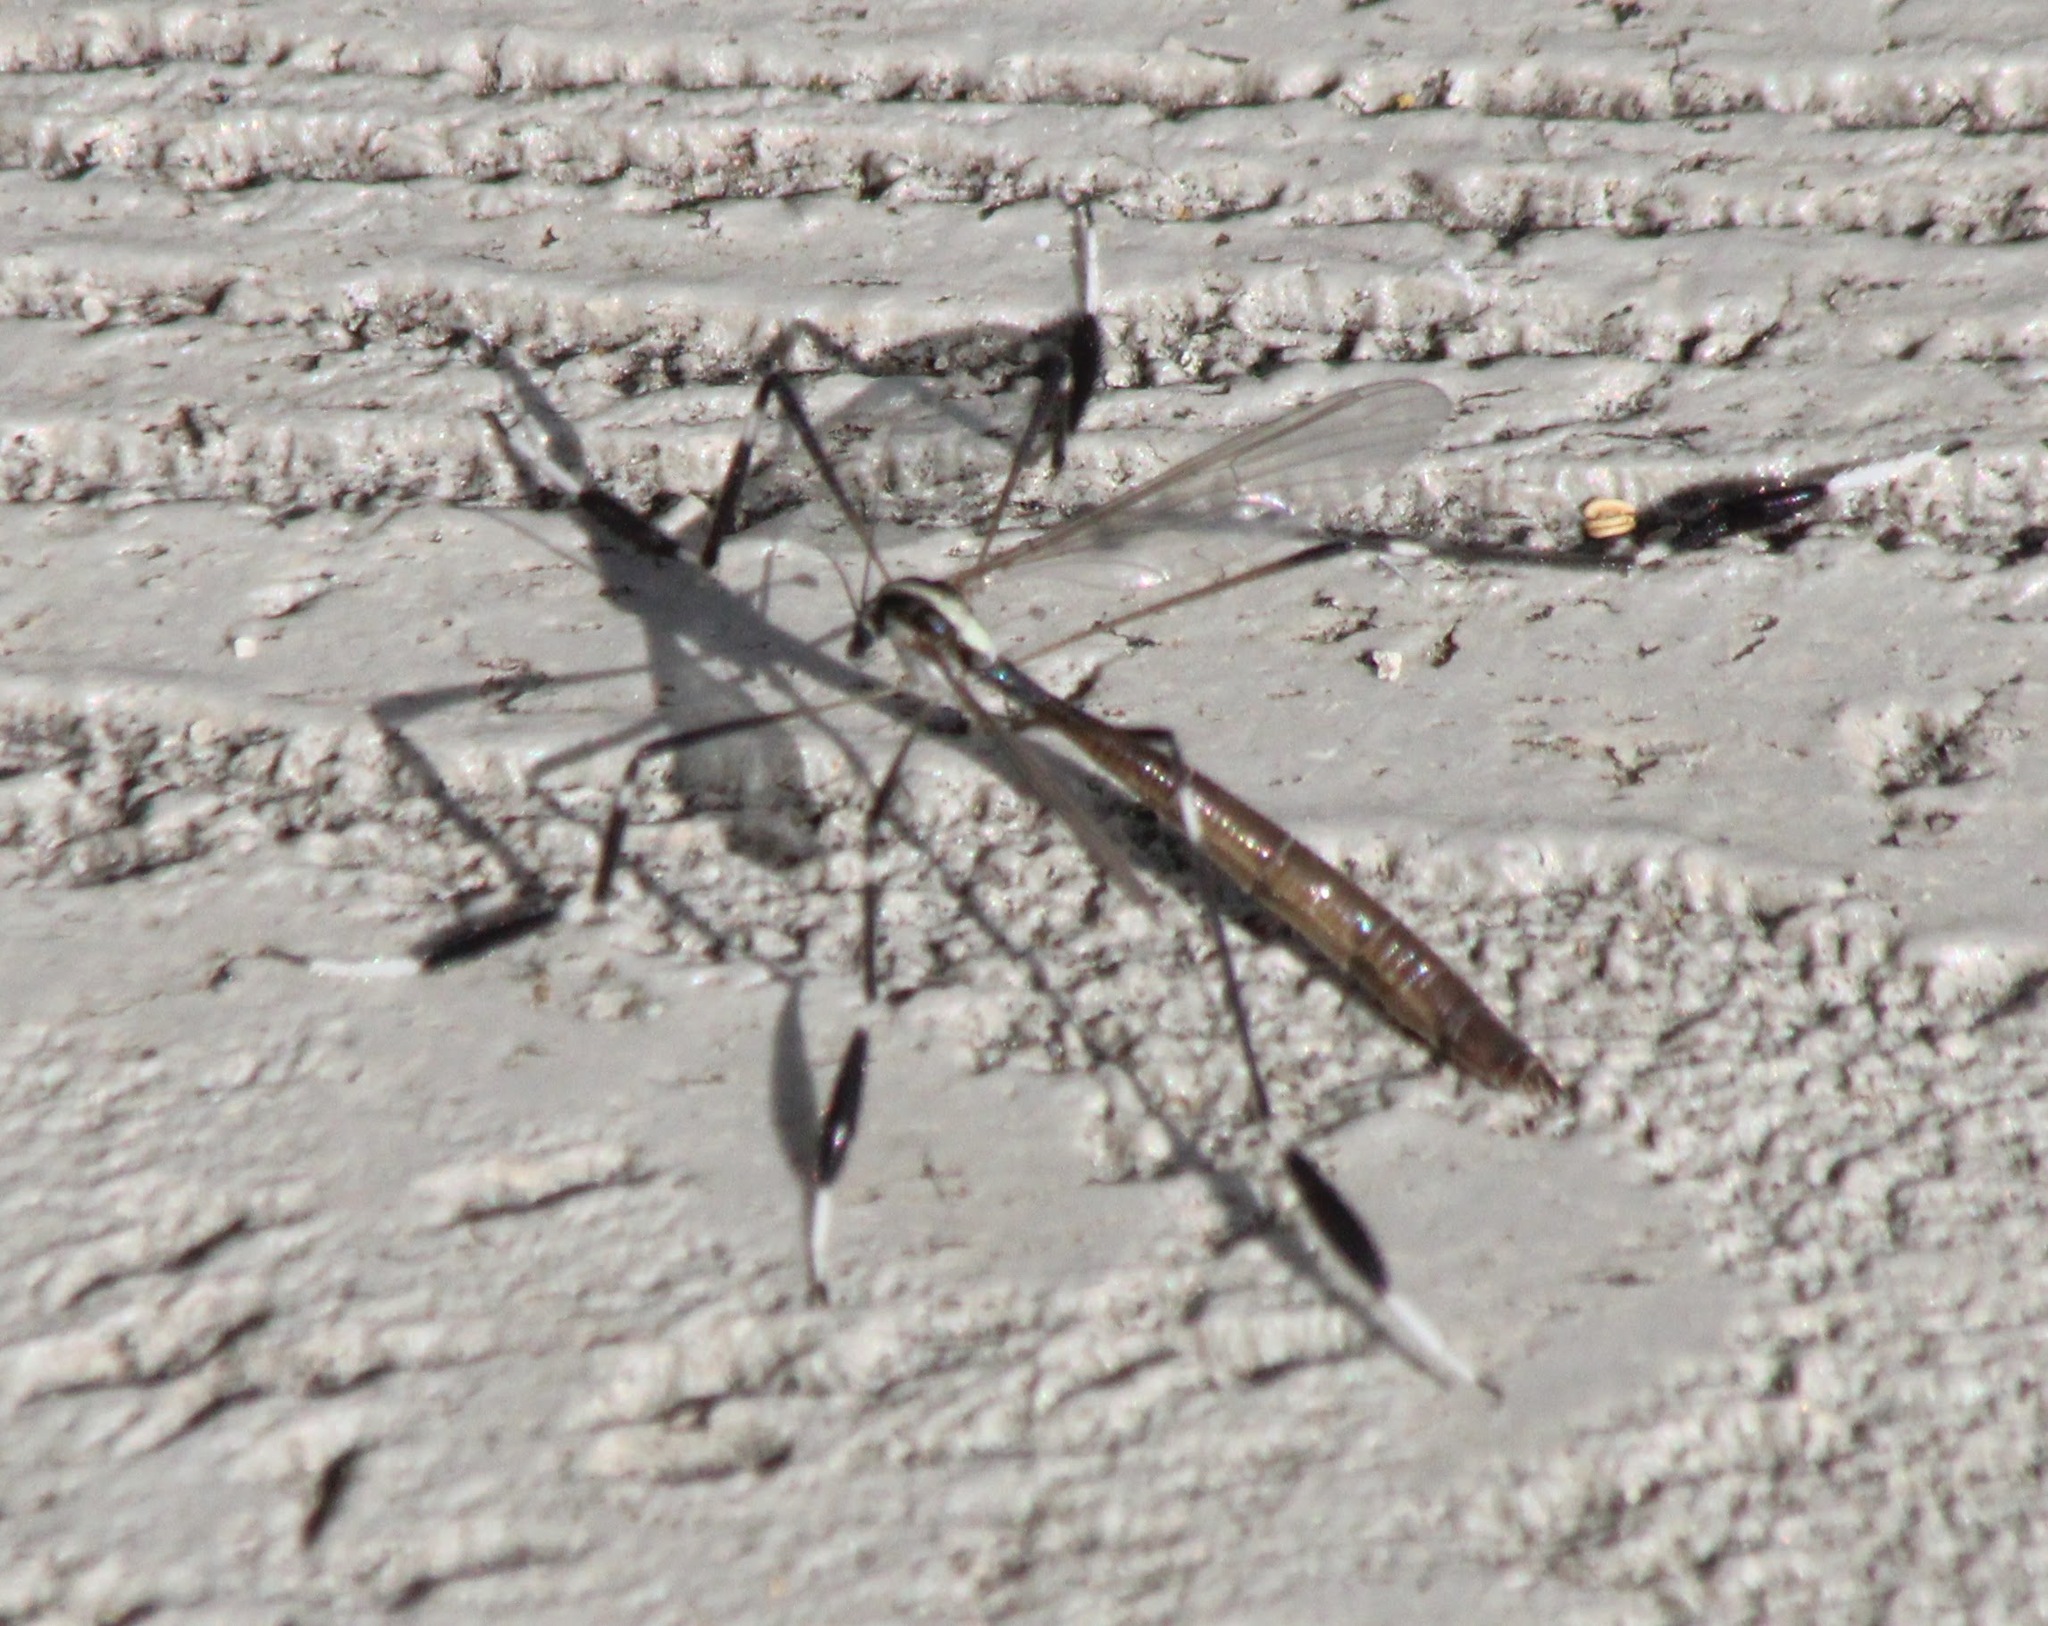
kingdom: Animalia
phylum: Arthropoda
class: Insecta
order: Diptera
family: Ptychopteridae
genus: Bittacomorpha
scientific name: Bittacomorpha clavipes
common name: Eastern phantom crane fly
